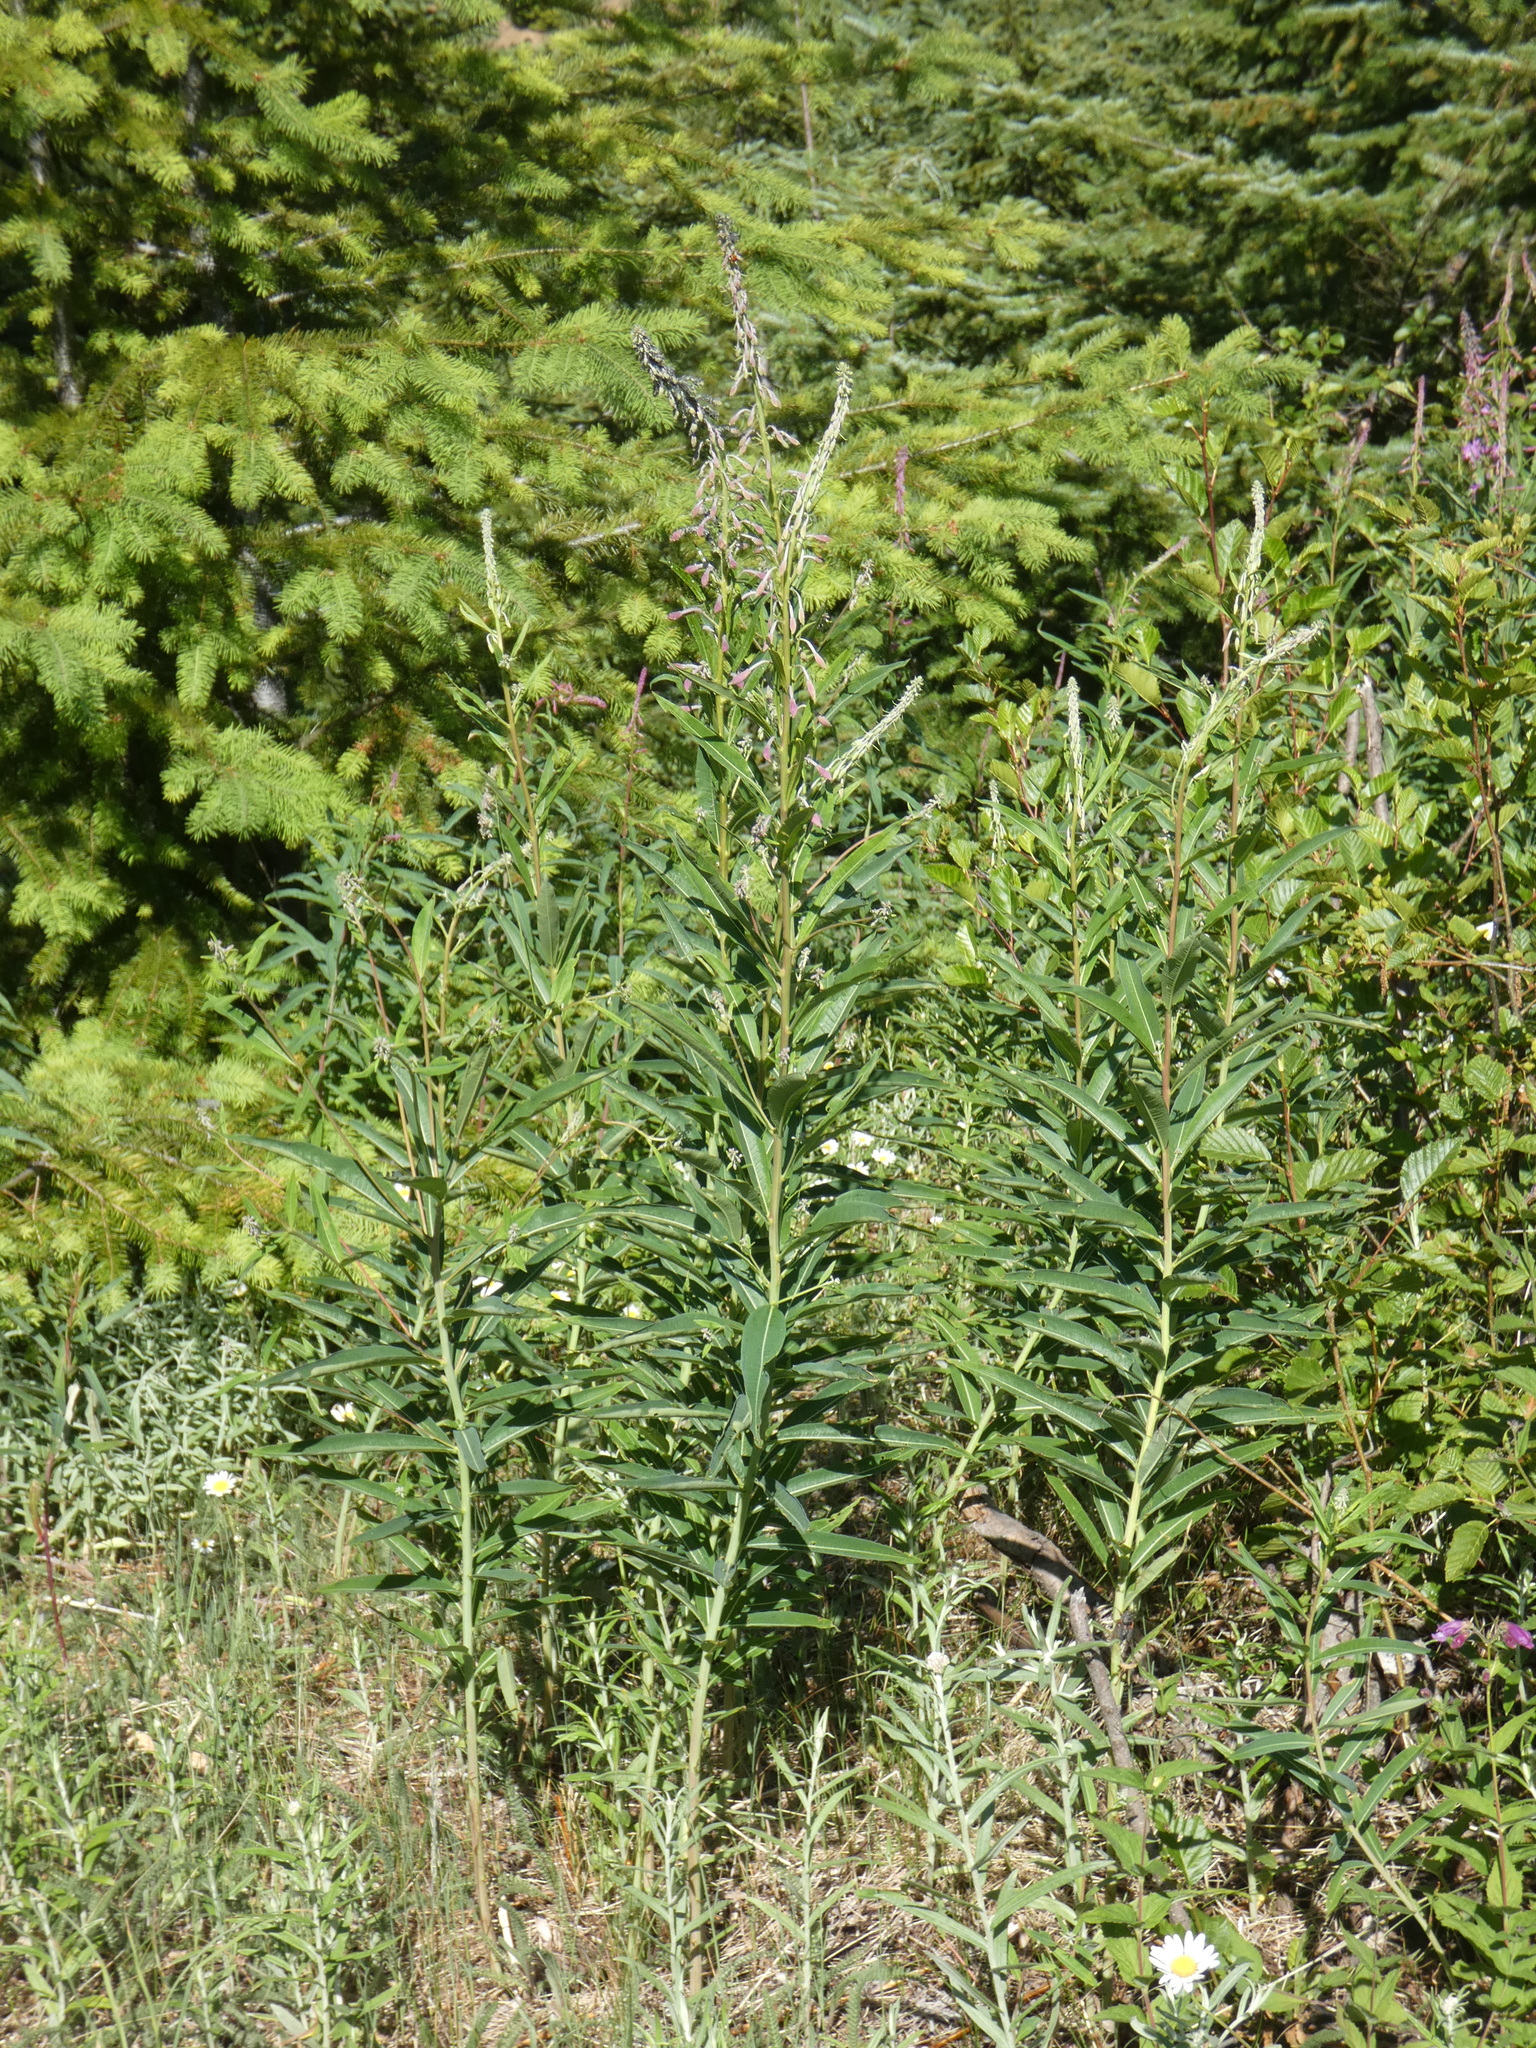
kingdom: Plantae
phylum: Tracheophyta
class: Magnoliopsida
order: Myrtales
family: Onagraceae
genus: Chamaenerion
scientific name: Chamaenerion angustifolium
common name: Fireweed
